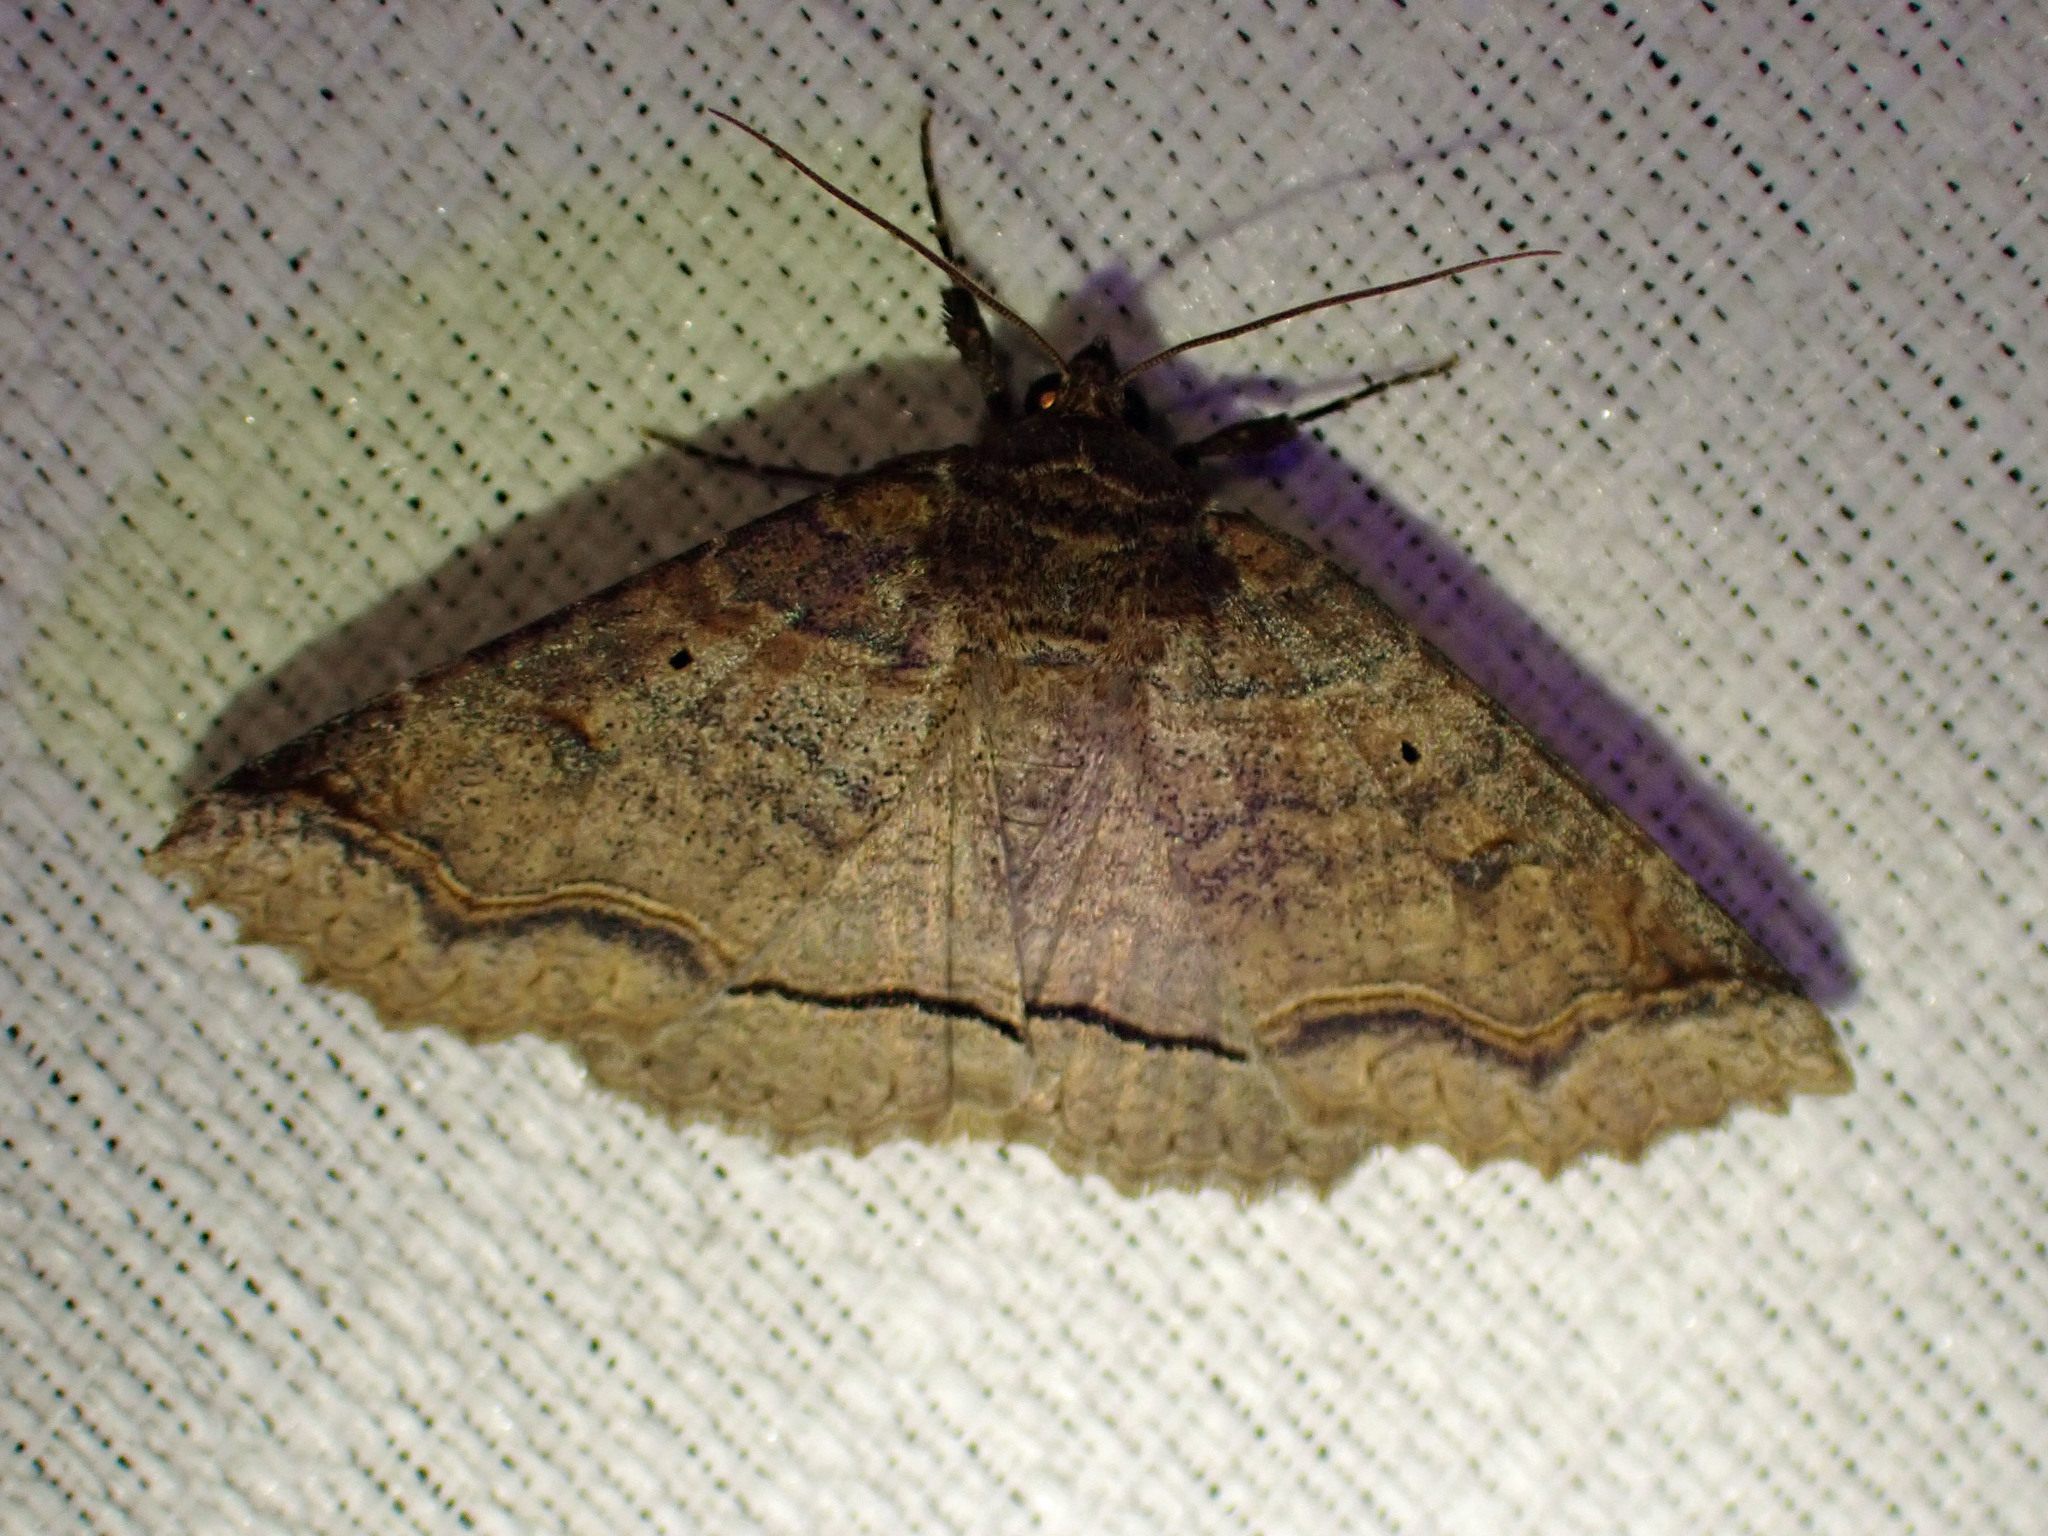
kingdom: Animalia
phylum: Arthropoda
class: Insecta
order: Lepidoptera
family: Erebidae
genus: Zale
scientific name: Zale unilineata
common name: One-lined zale moth
